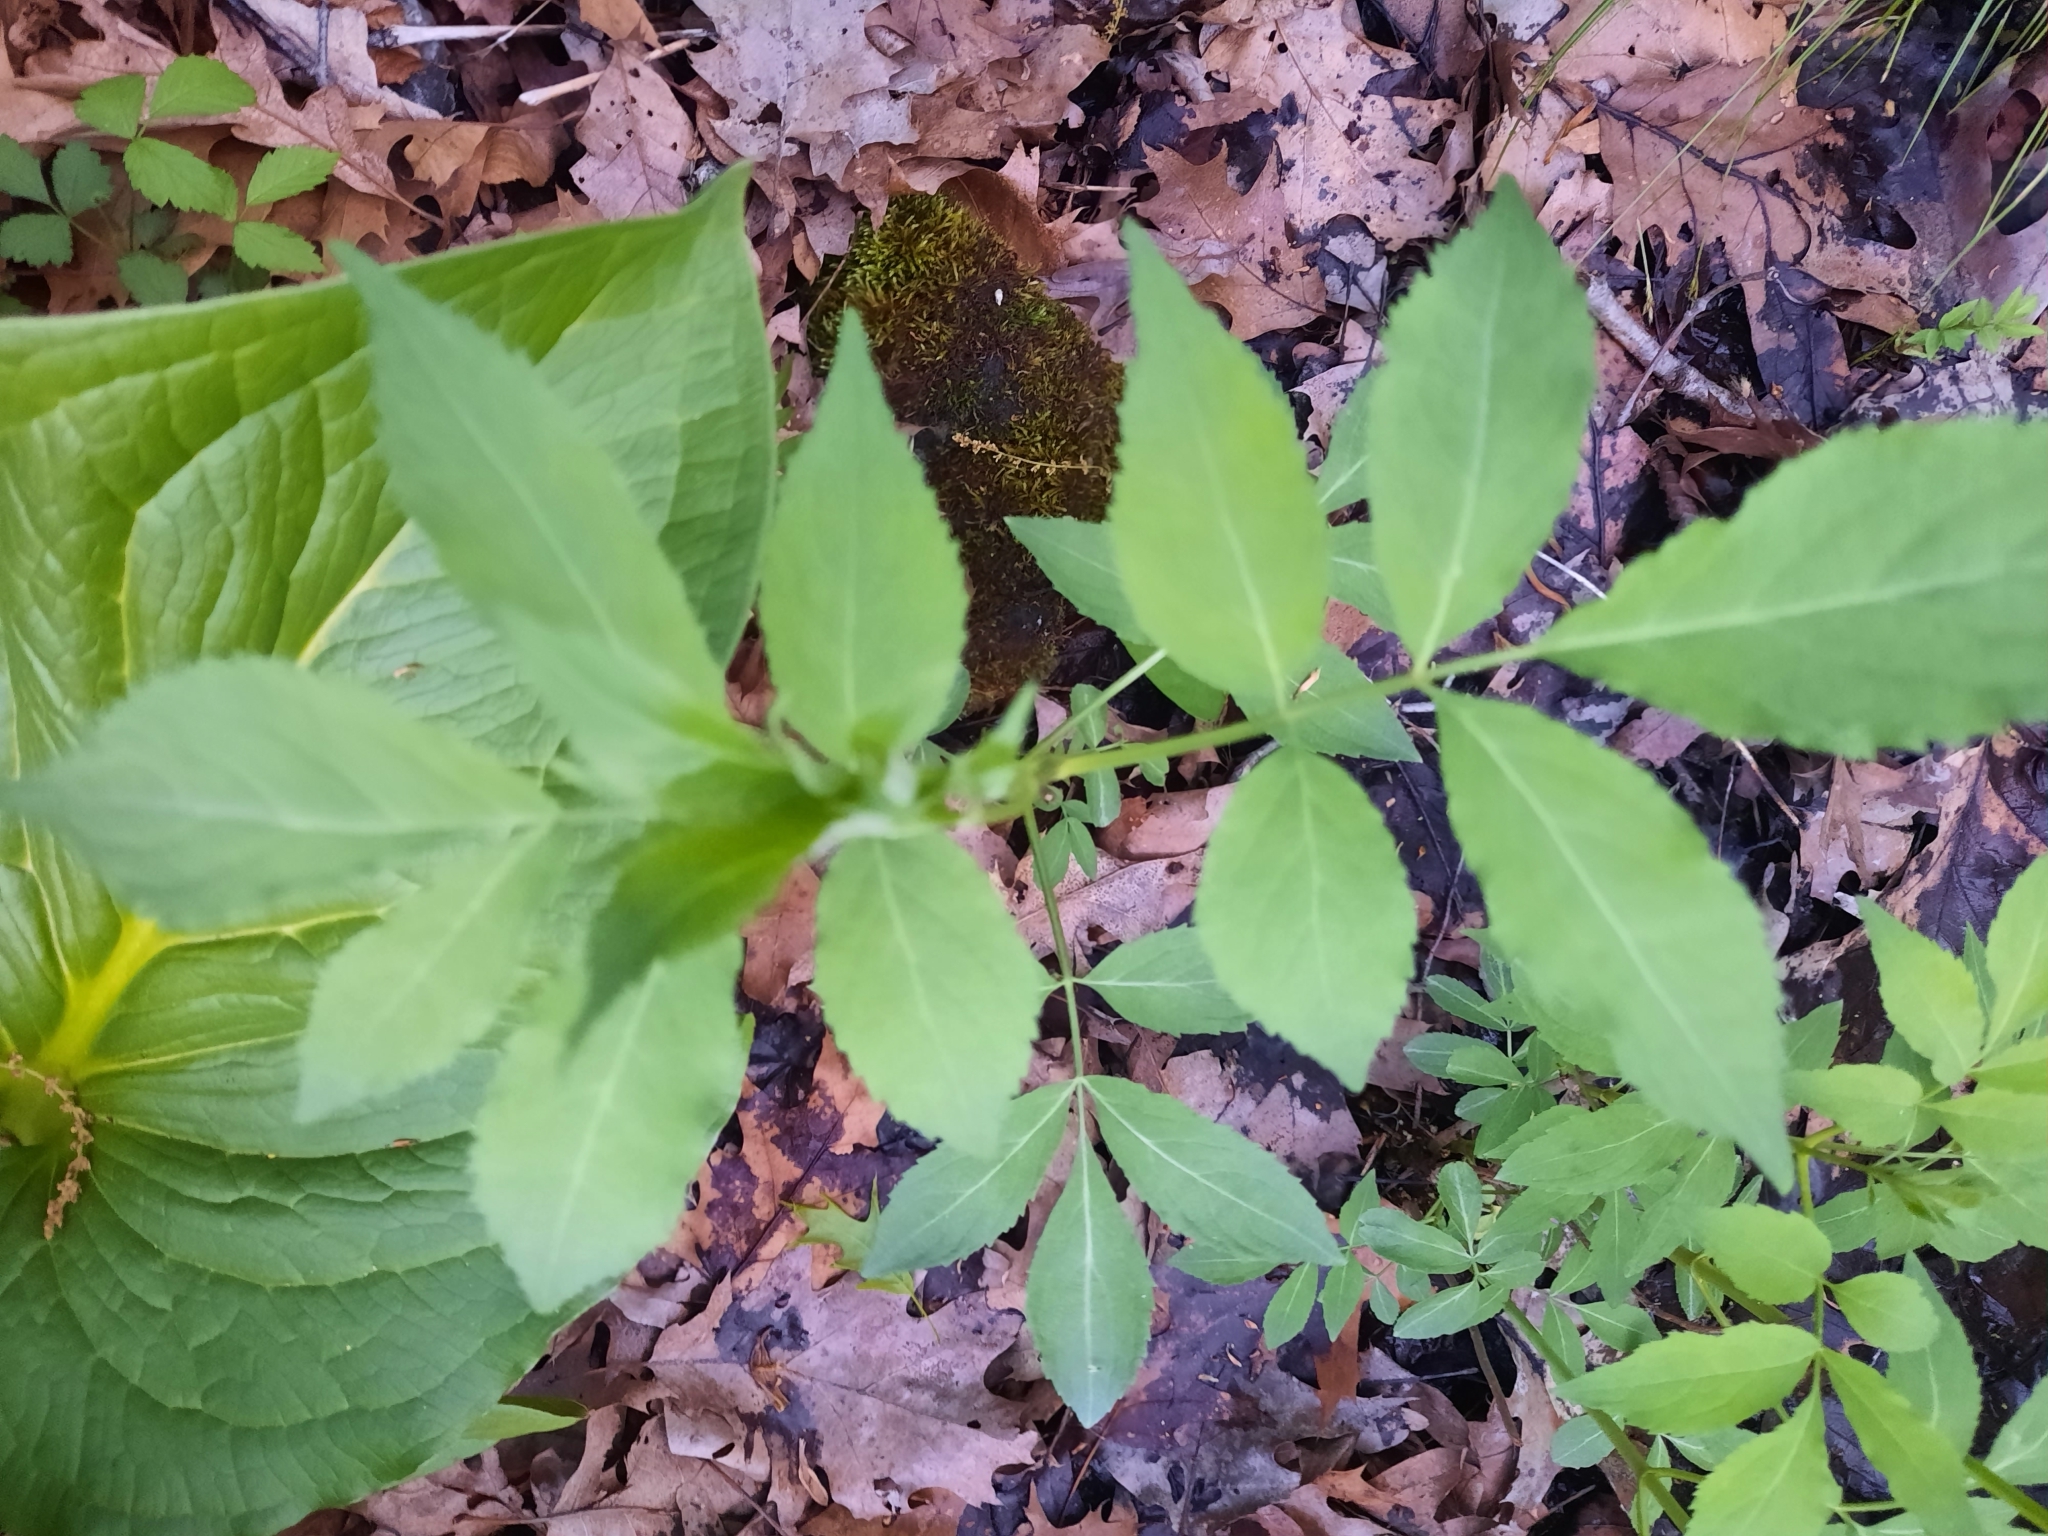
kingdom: Plantae
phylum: Tracheophyta
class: Magnoliopsida
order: Dipsacales
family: Viburnaceae
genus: Sambucus
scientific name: Sambucus canadensis
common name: American elder
